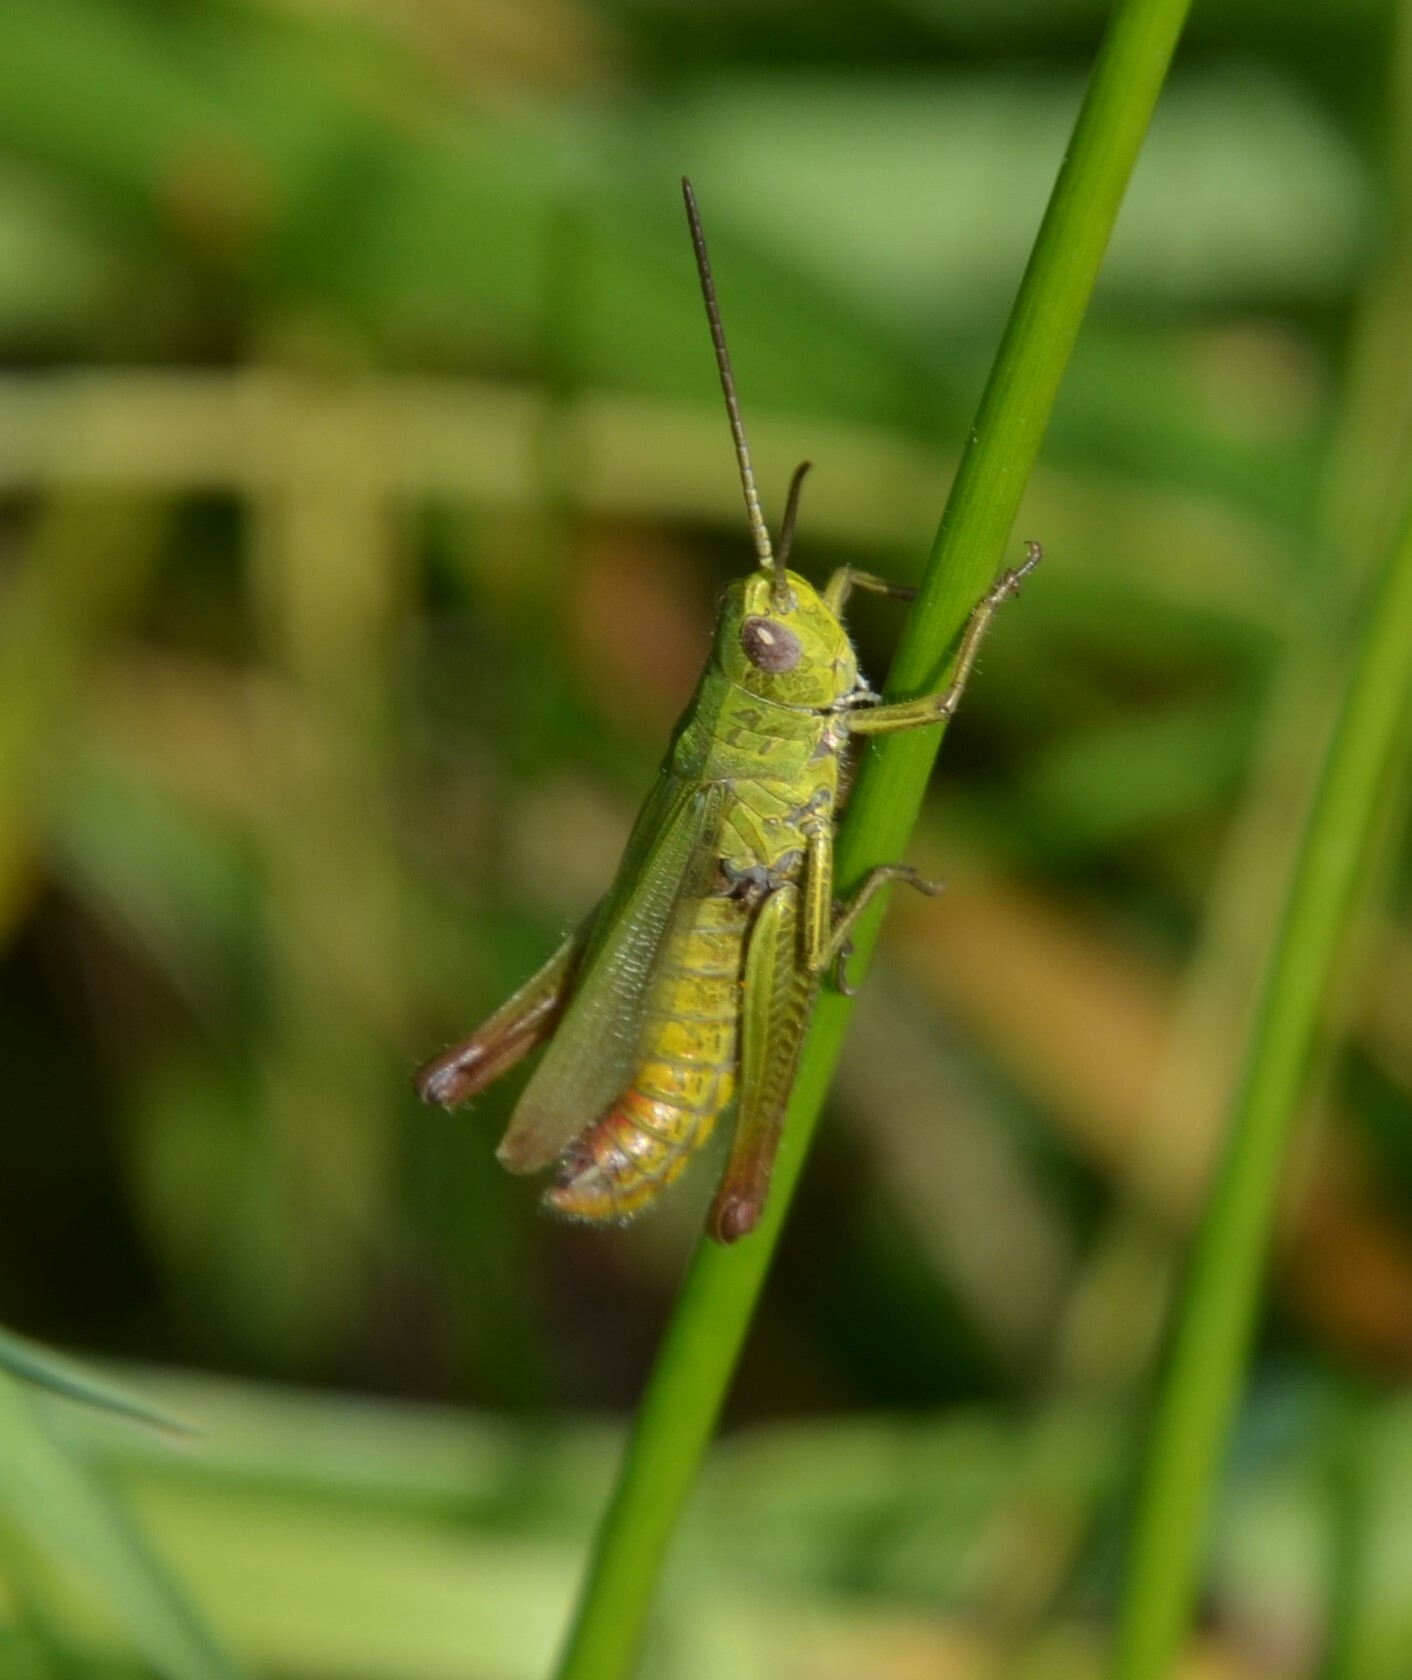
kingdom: Animalia
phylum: Arthropoda
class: Insecta
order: Orthoptera
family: Acrididae
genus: Chorthippus
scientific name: Chorthippus dorsatus
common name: Steppe grasshopper
